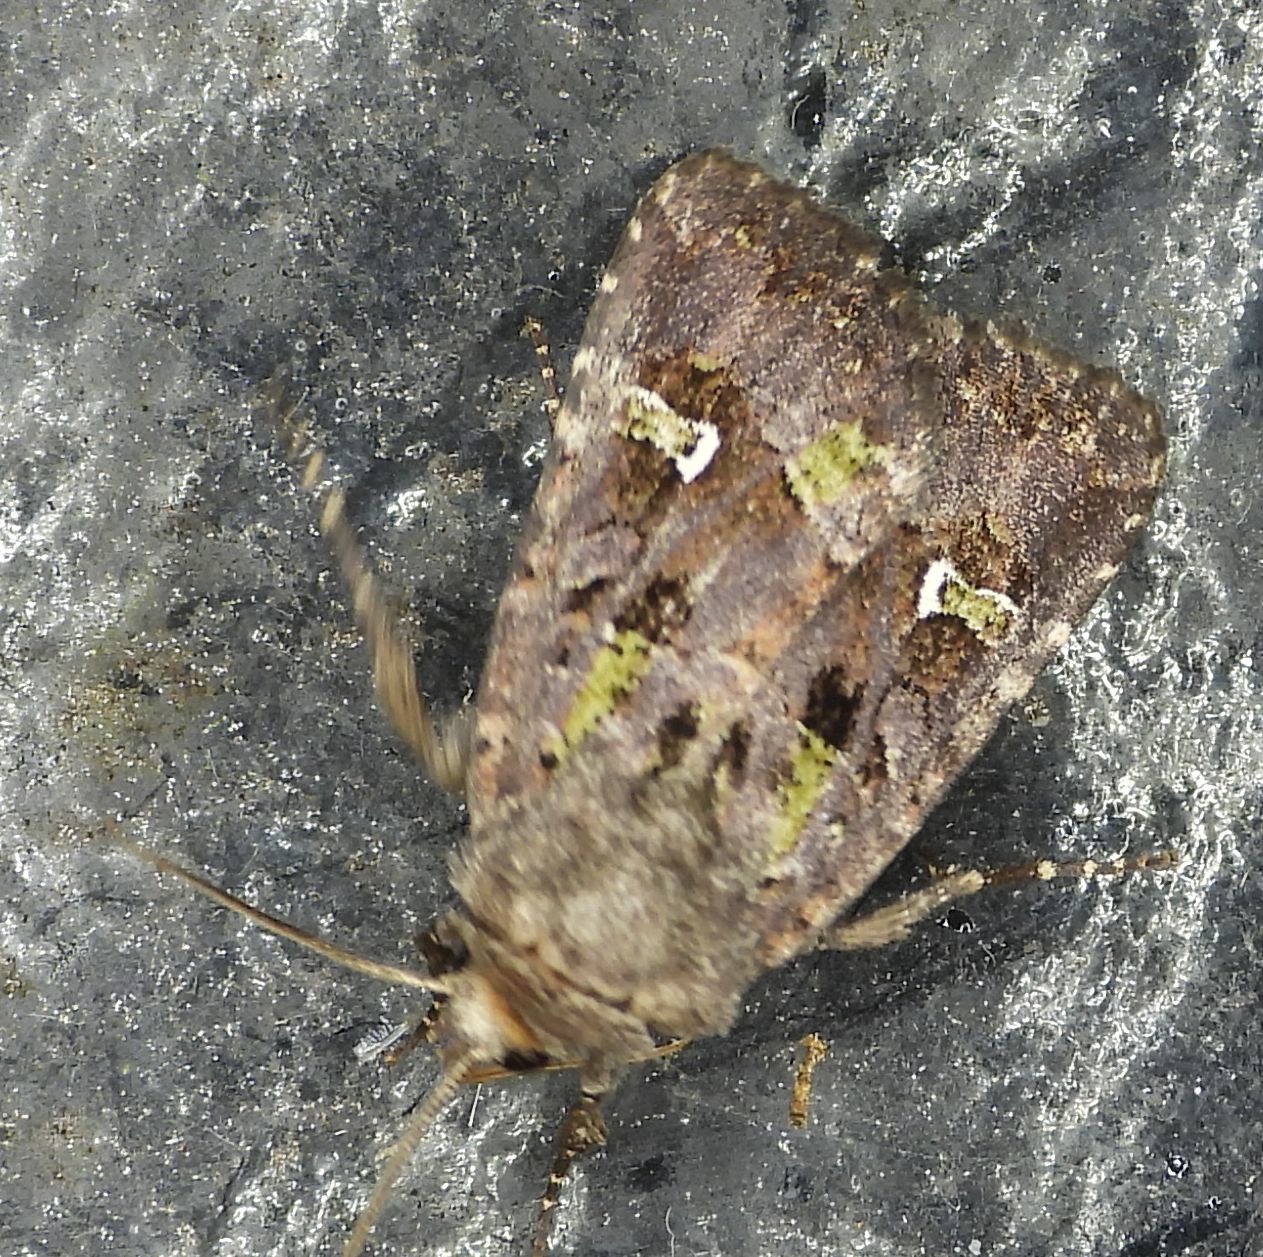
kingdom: Animalia
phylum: Arthropoda
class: Insecta
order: Lepidoptera
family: Noctuidae
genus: Lacinipolia
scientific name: Lacinipolia renigera
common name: Kidney-spotted minor
